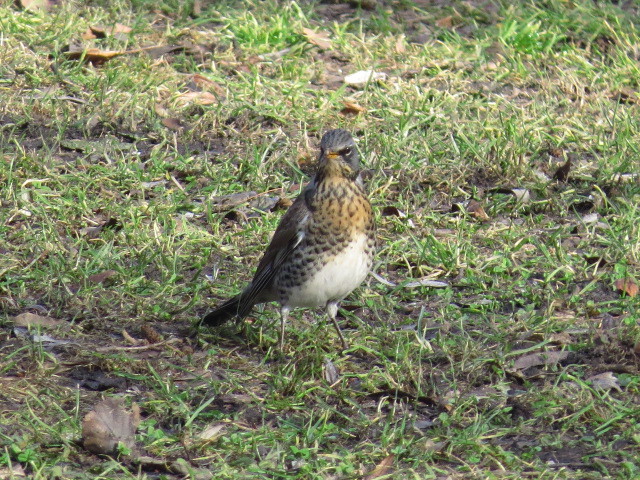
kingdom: Animalia
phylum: Chordata
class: Aves
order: Passeriformes
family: Turdidae
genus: Turdus
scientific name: Turdus pilaris
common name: Fieldfare
